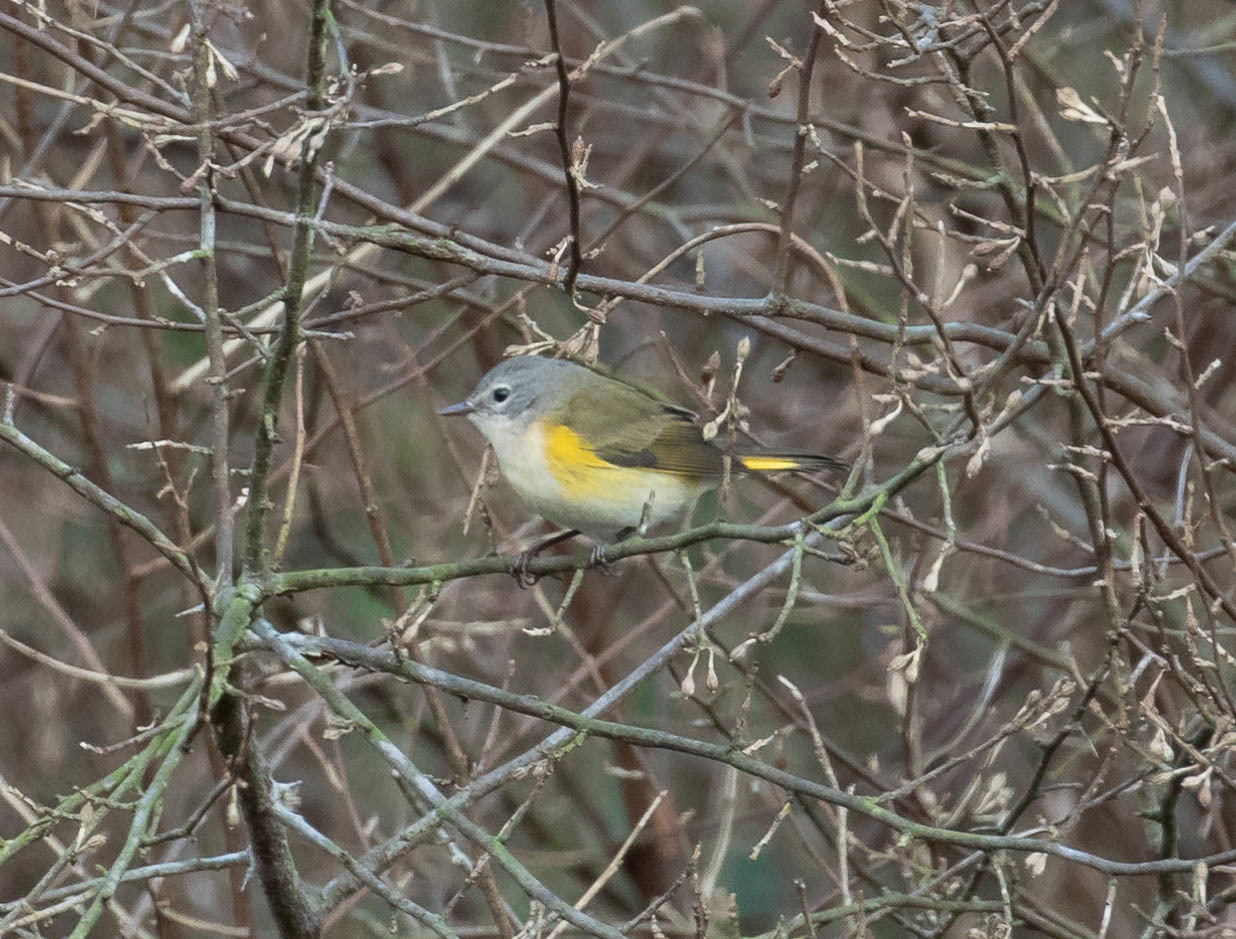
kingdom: Animalia
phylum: Chordata
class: Aves
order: Passeriformes
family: Parulidae
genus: Setophaga
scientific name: Setophaga ruticilla
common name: American redstart
